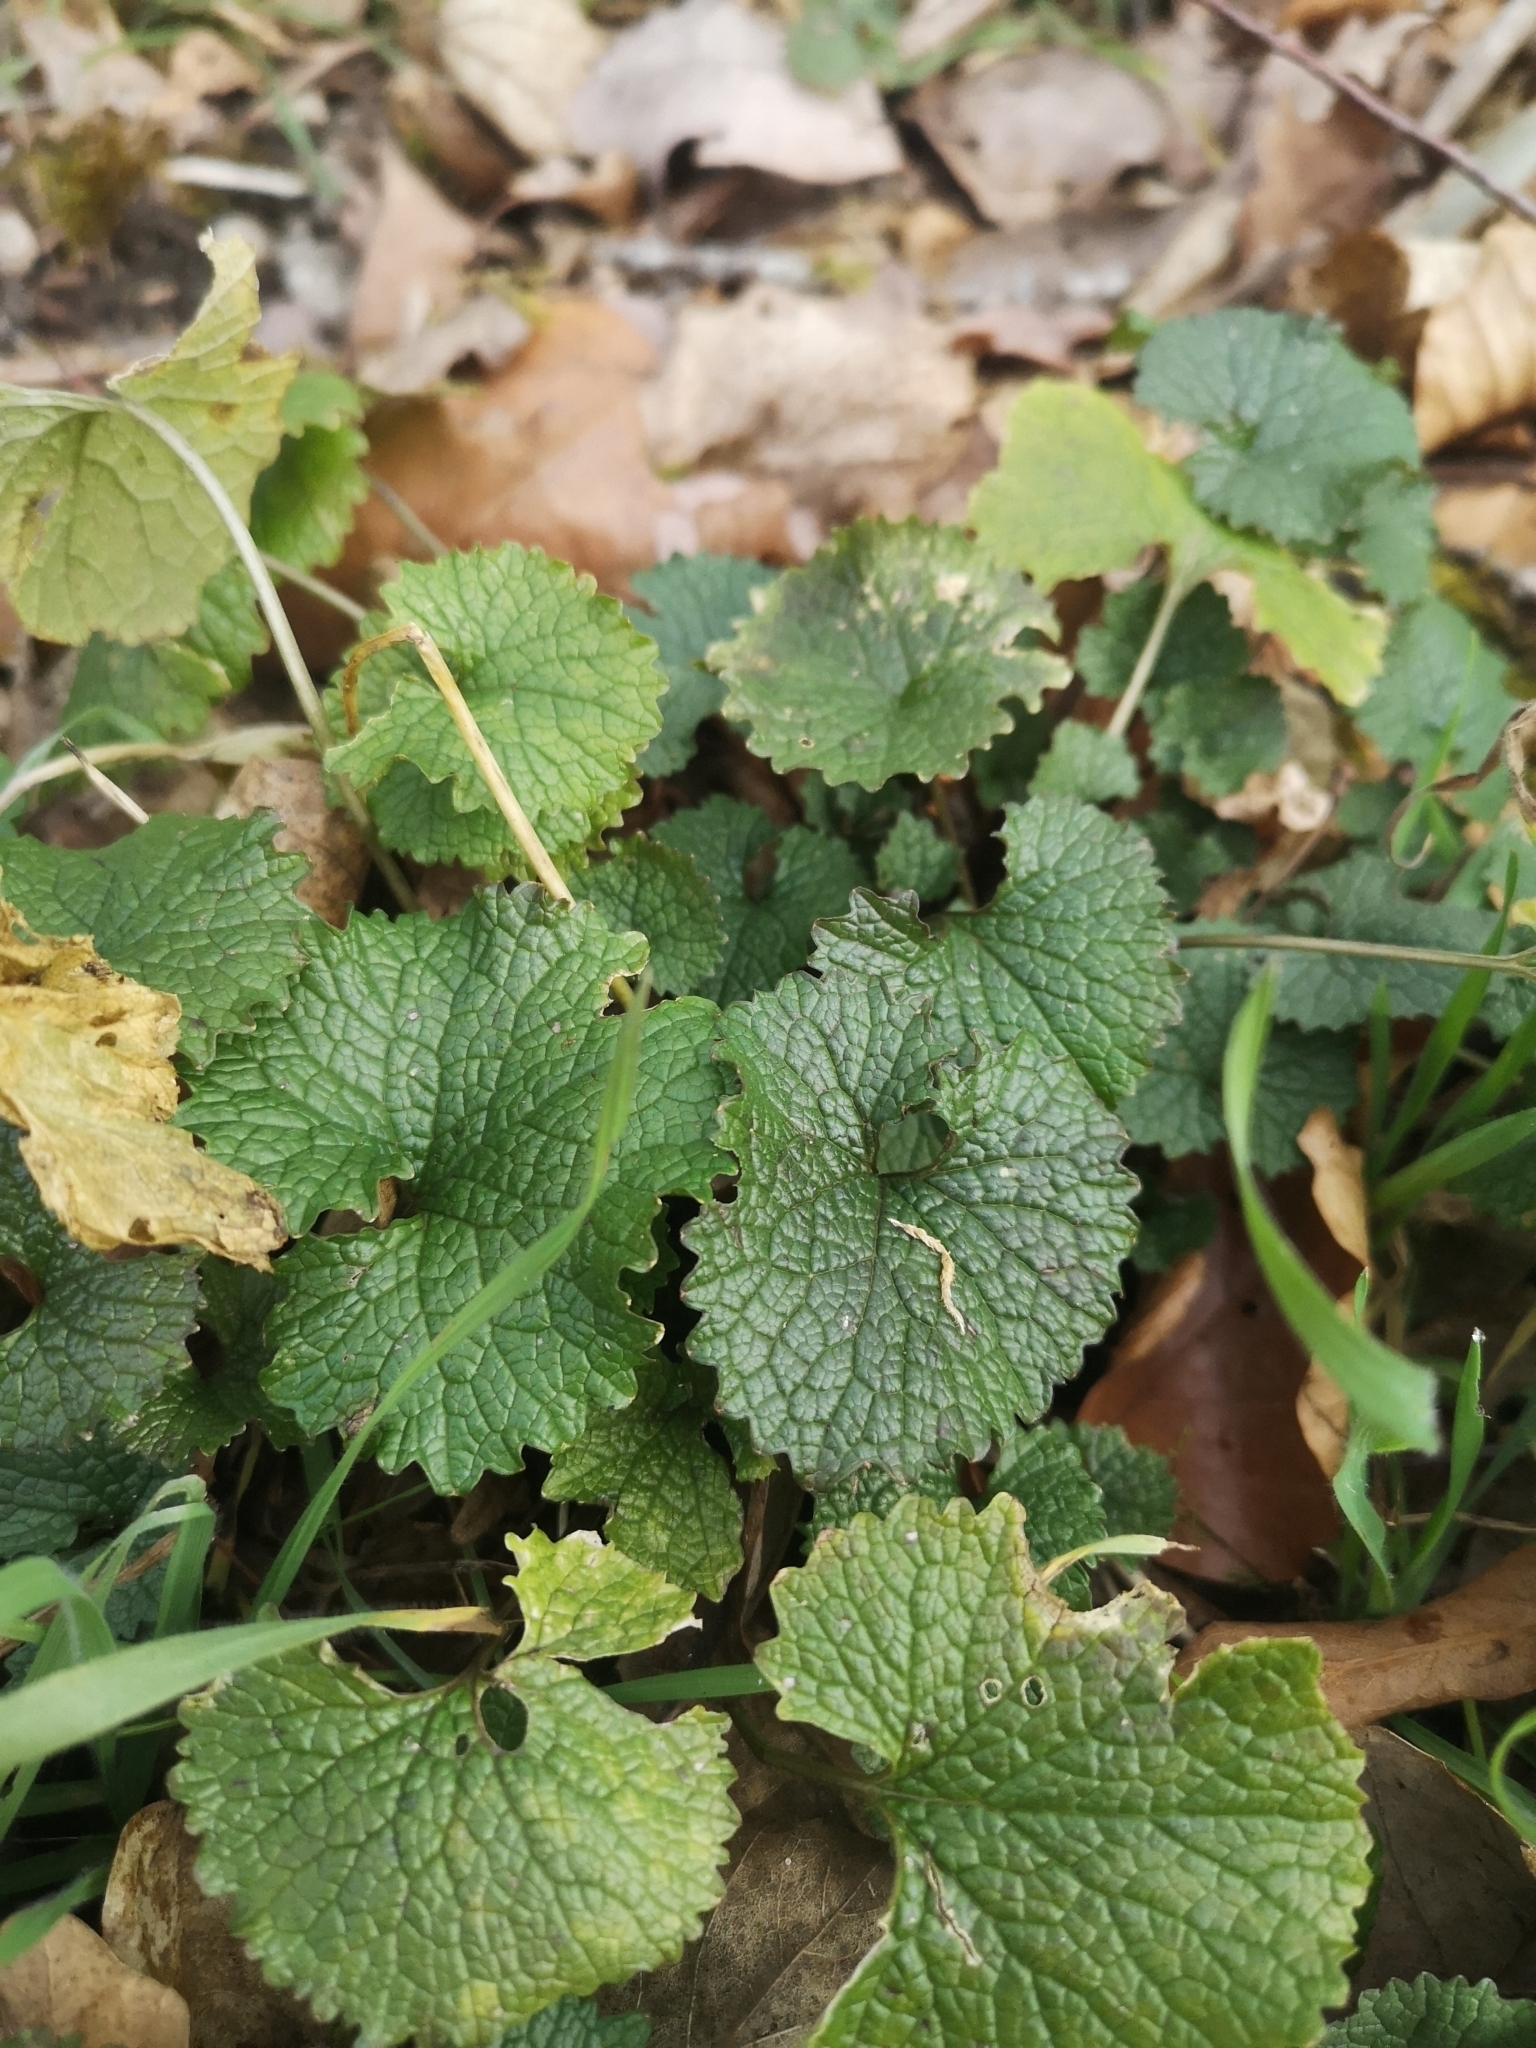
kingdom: Plantae
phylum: Tracheophyta
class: Magnoliopsida
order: Brassicales
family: Brassicaceae
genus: Alliaria
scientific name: Alliaria petiolata
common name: Garlic mustard
